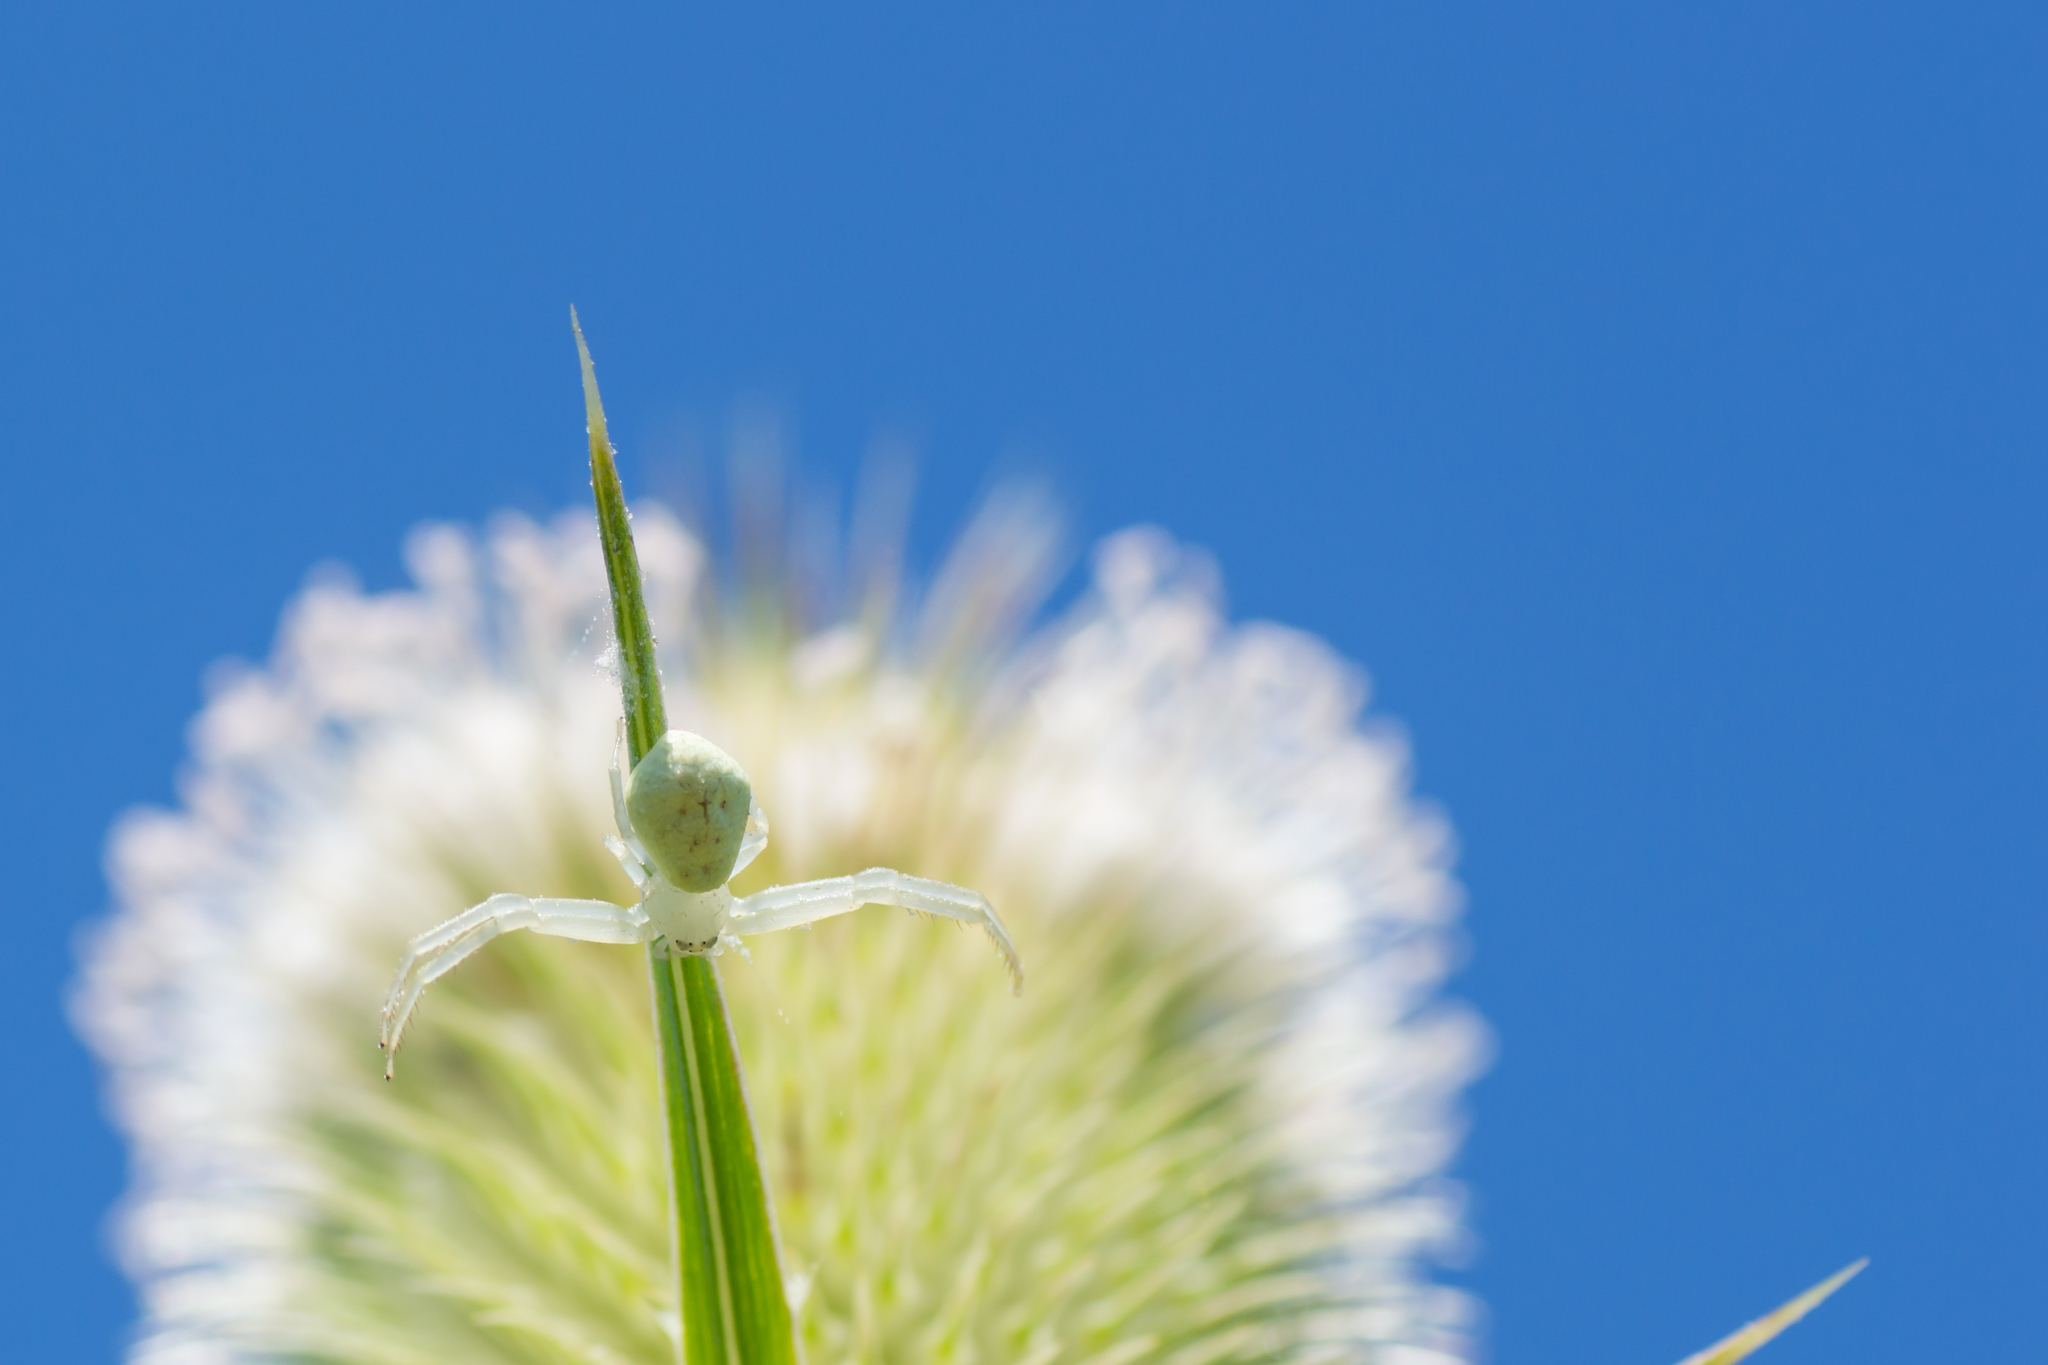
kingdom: Animalia
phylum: Arthropoda
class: Arachnida
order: Araneae
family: Thomisidae
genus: Misumessus
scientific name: Misumessus oblongus
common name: American green crab spider
